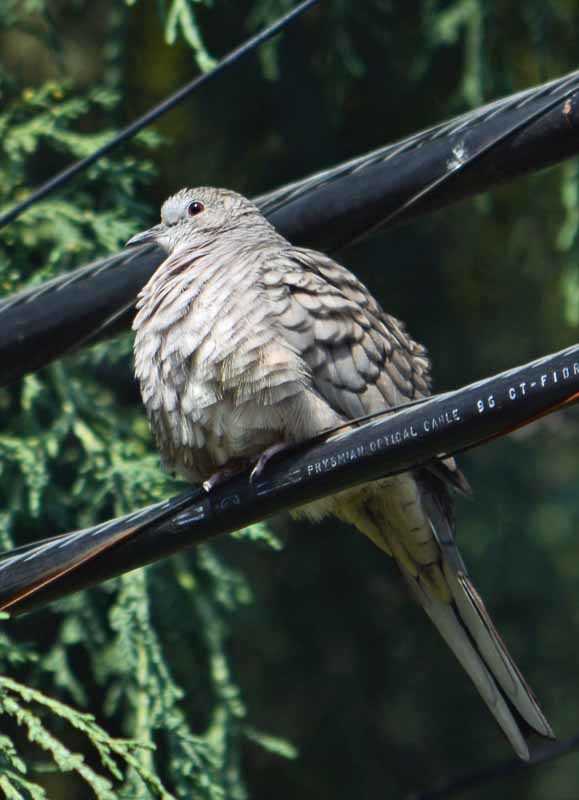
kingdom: Animalia
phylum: Chordata
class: Aves
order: Columbiformes
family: Columbidae
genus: Columbina
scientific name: Columbina inca
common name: Inca dove
